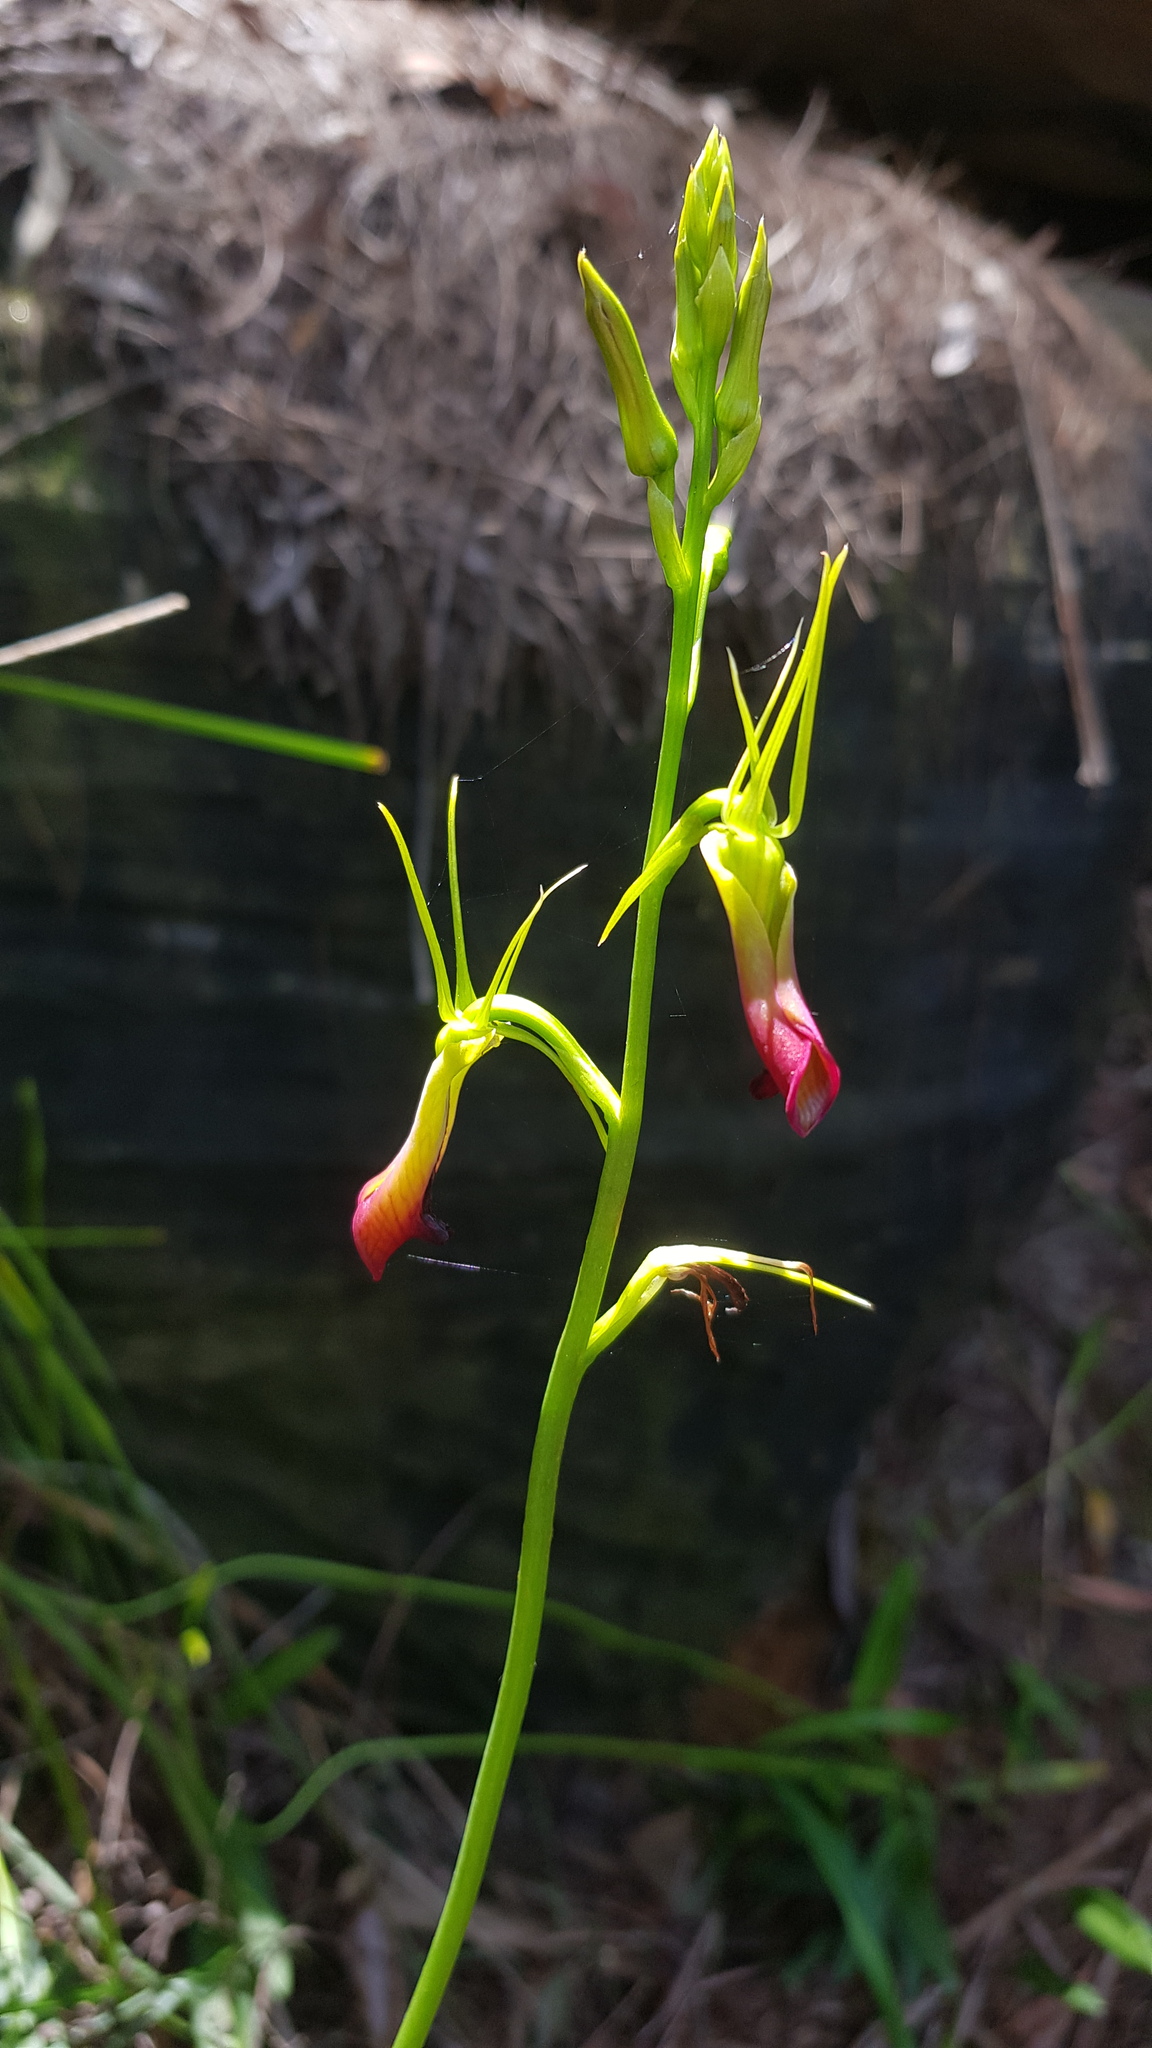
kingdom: Plantae
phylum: Tracheophyta
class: Liliopsida
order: Asparagales
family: Orchidaceae
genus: Cryptostylis
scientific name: Cryptostylis subulata
